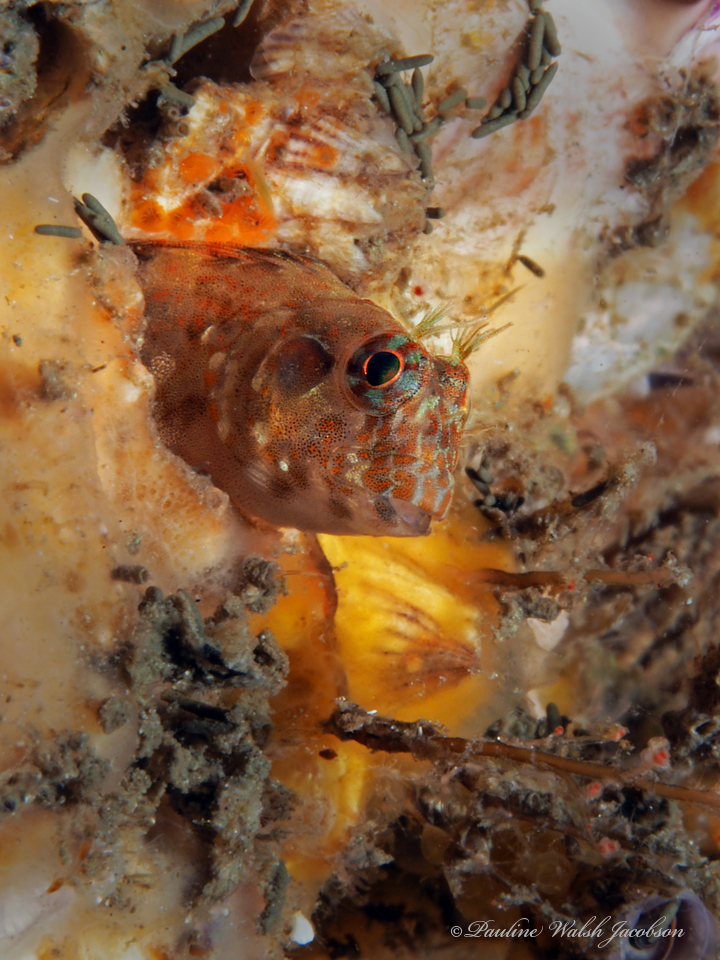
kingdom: Animalia
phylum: Chordata
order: Perciformes
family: Blenniidae
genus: Hypleurochilus
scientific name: Hypleurochilus pseudoaequipinnis
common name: Oyster blenny
